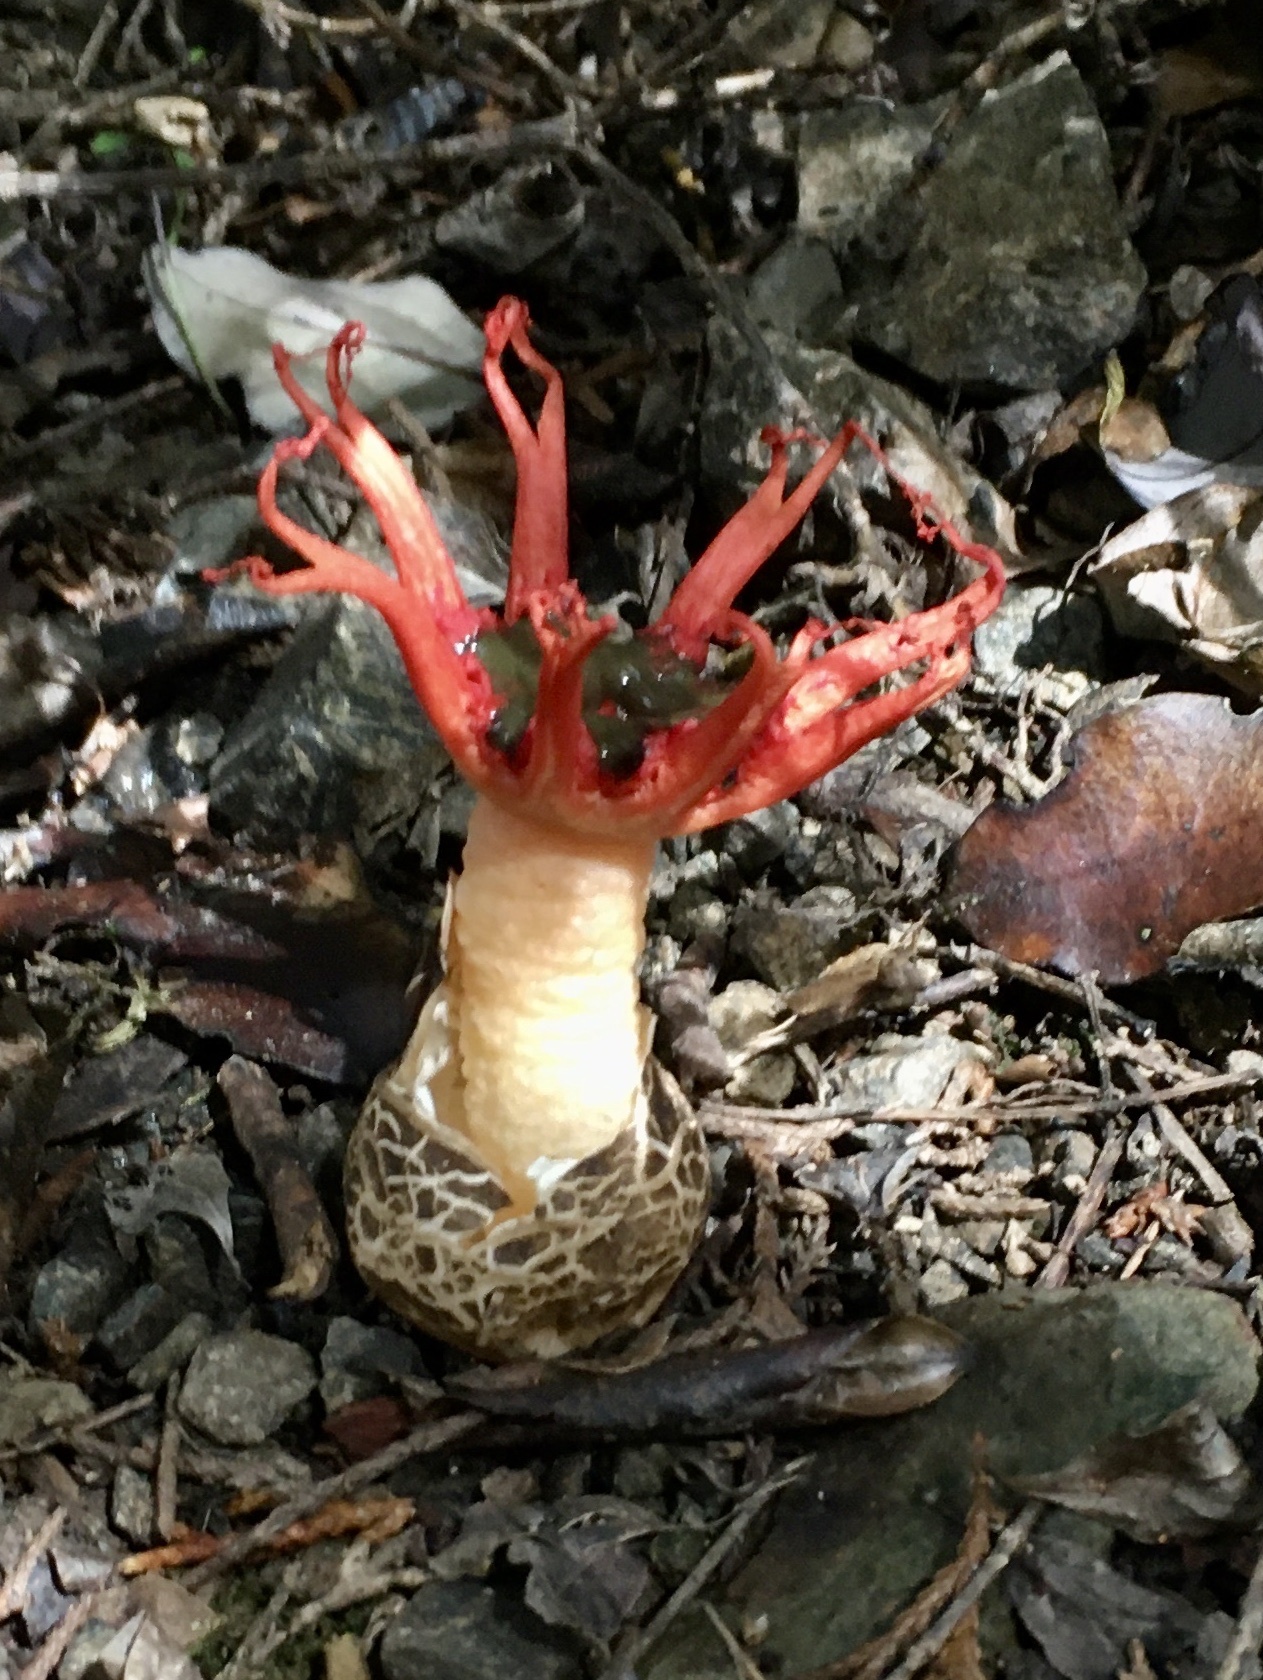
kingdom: Fungi
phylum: Basidiomycota
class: Agaricomycetes
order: Phallales
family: Phallaceae
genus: Aseroe
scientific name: Aseroe rubra
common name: Starfish fungus
